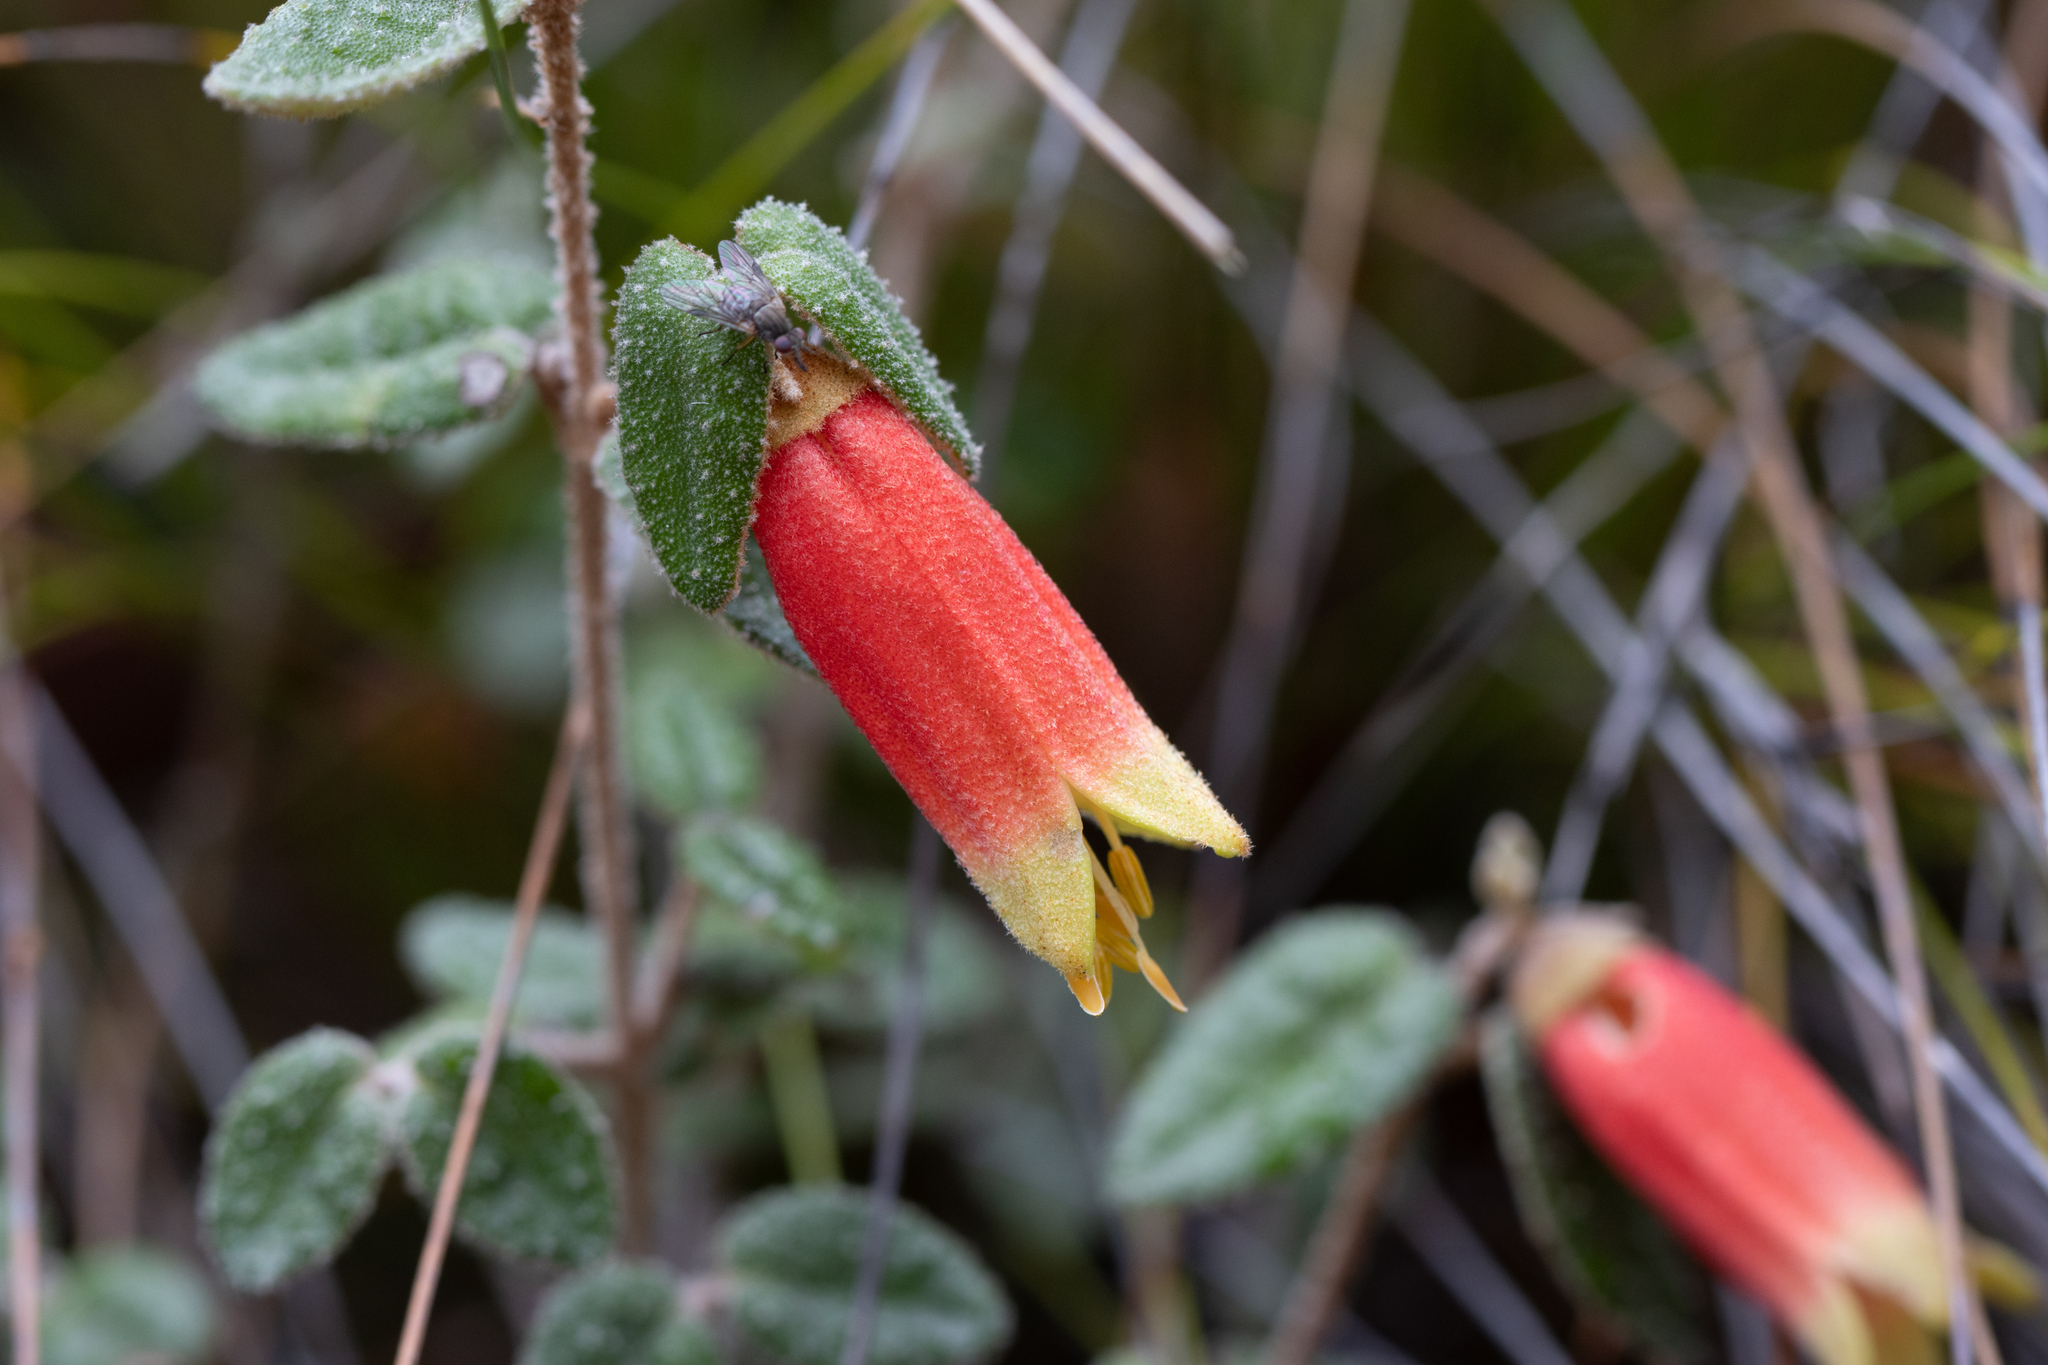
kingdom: Plantae
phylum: Tracheophyta
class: Magnoliopsida
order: Sapindales
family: Rutaceae
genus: Correa
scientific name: Correa reflexa
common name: Common correa
